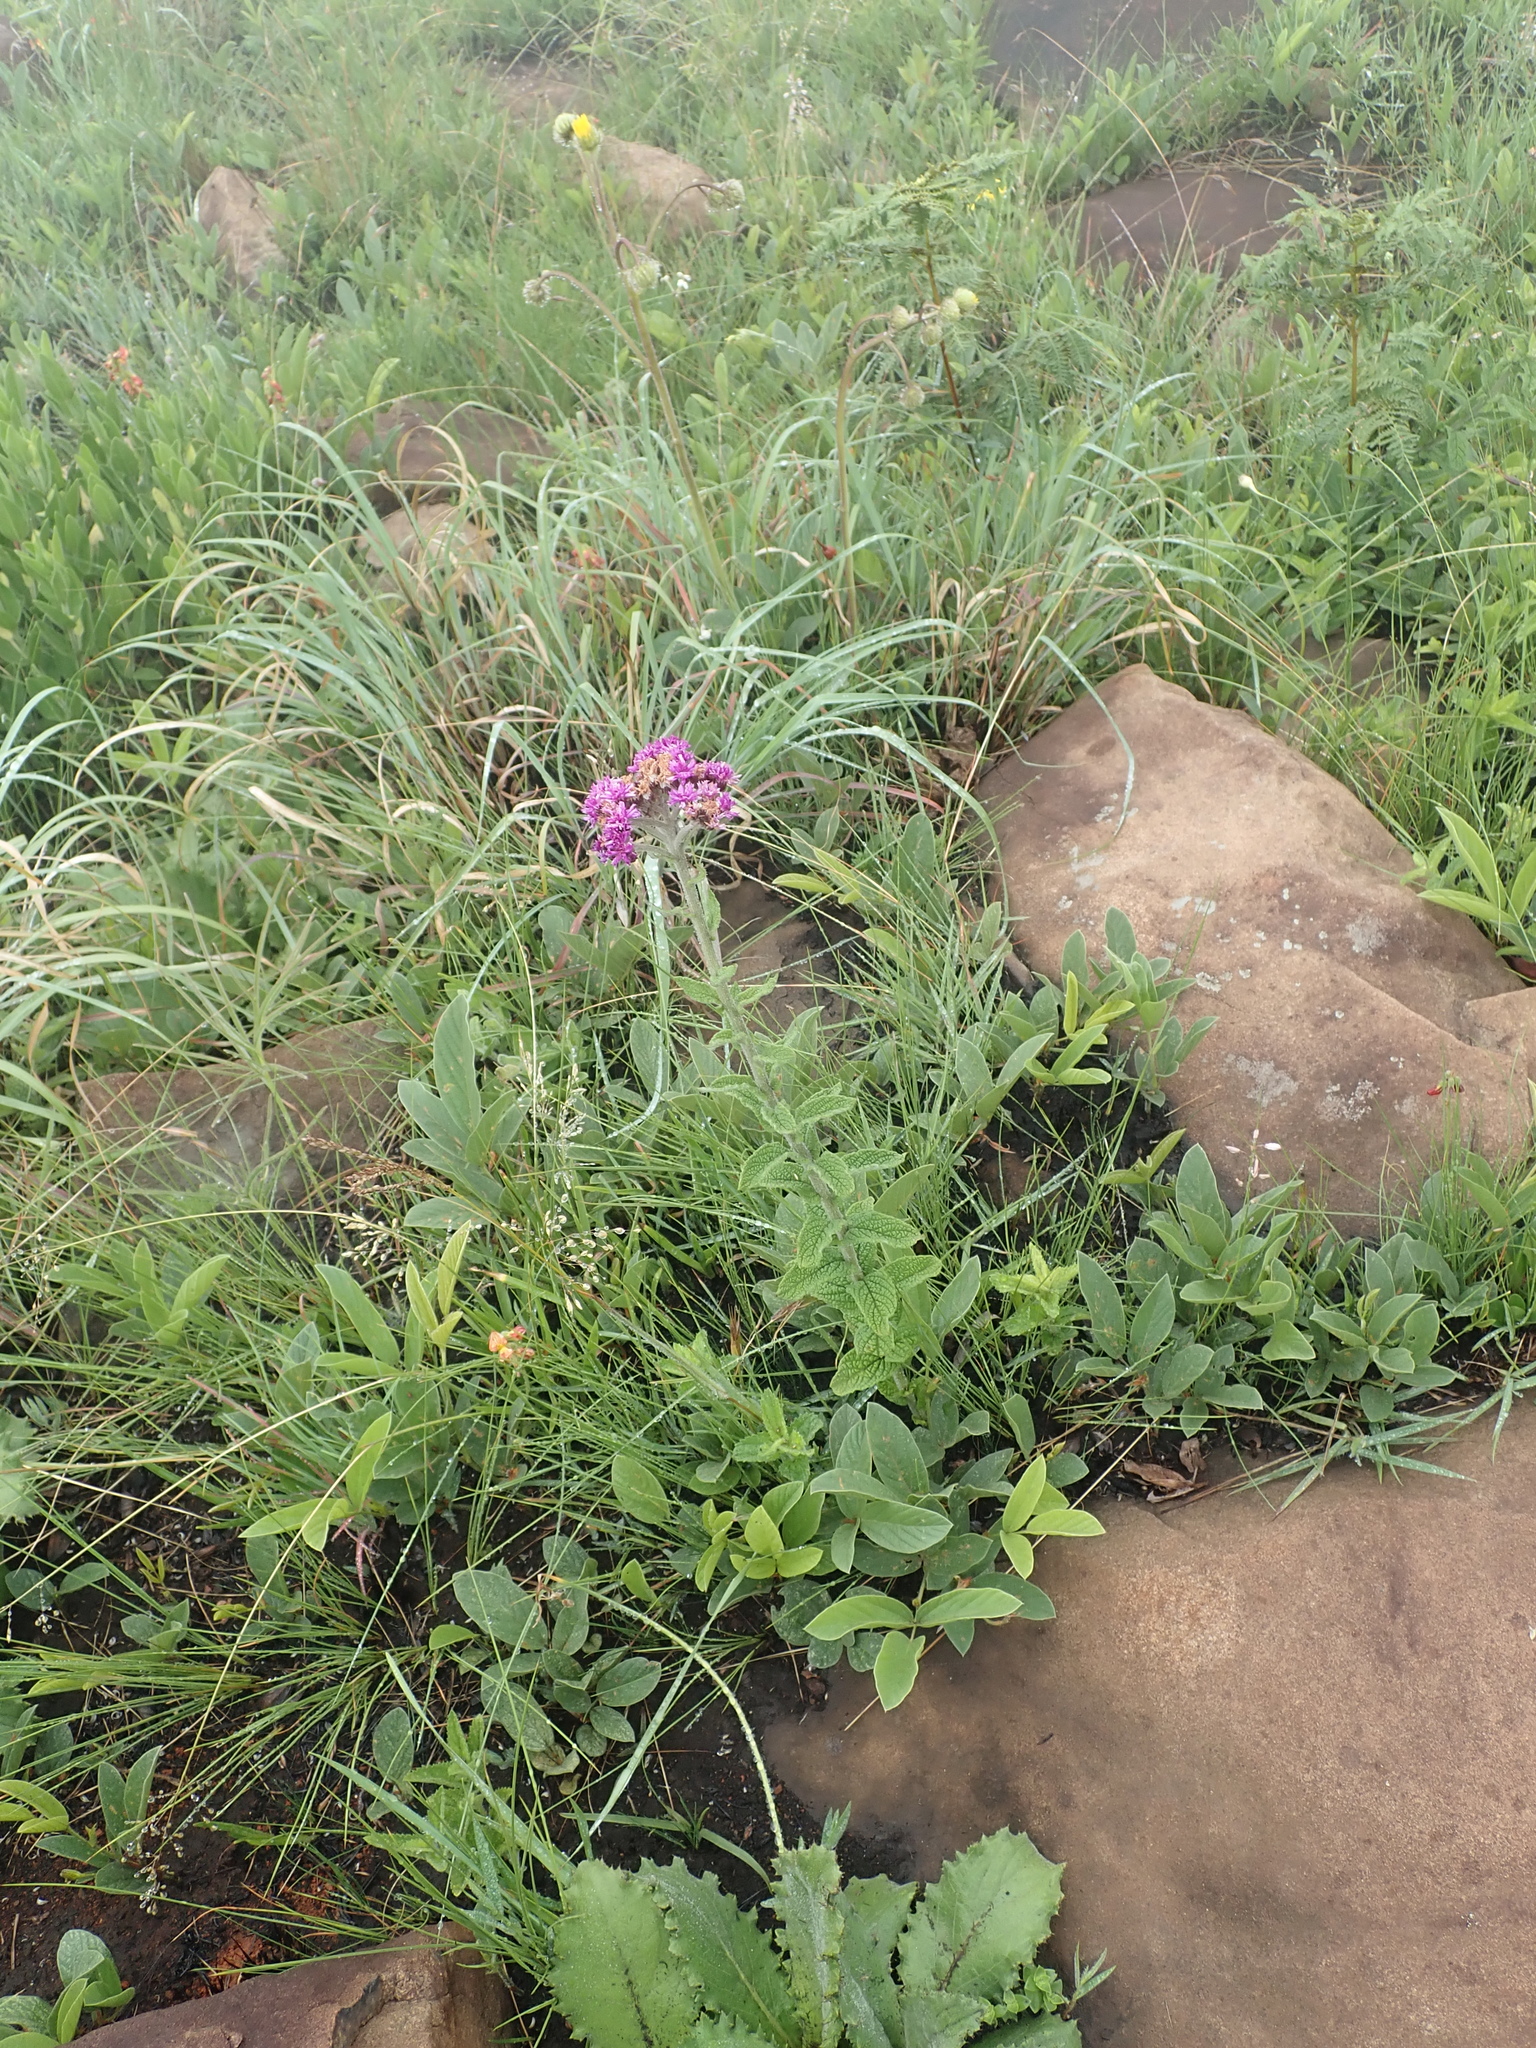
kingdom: Plantae
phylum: Tracheophyta
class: Magnoliopsida
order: Asterales
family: Asteraceae
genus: Hilliardiella
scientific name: Hilliardiella hirsuta
